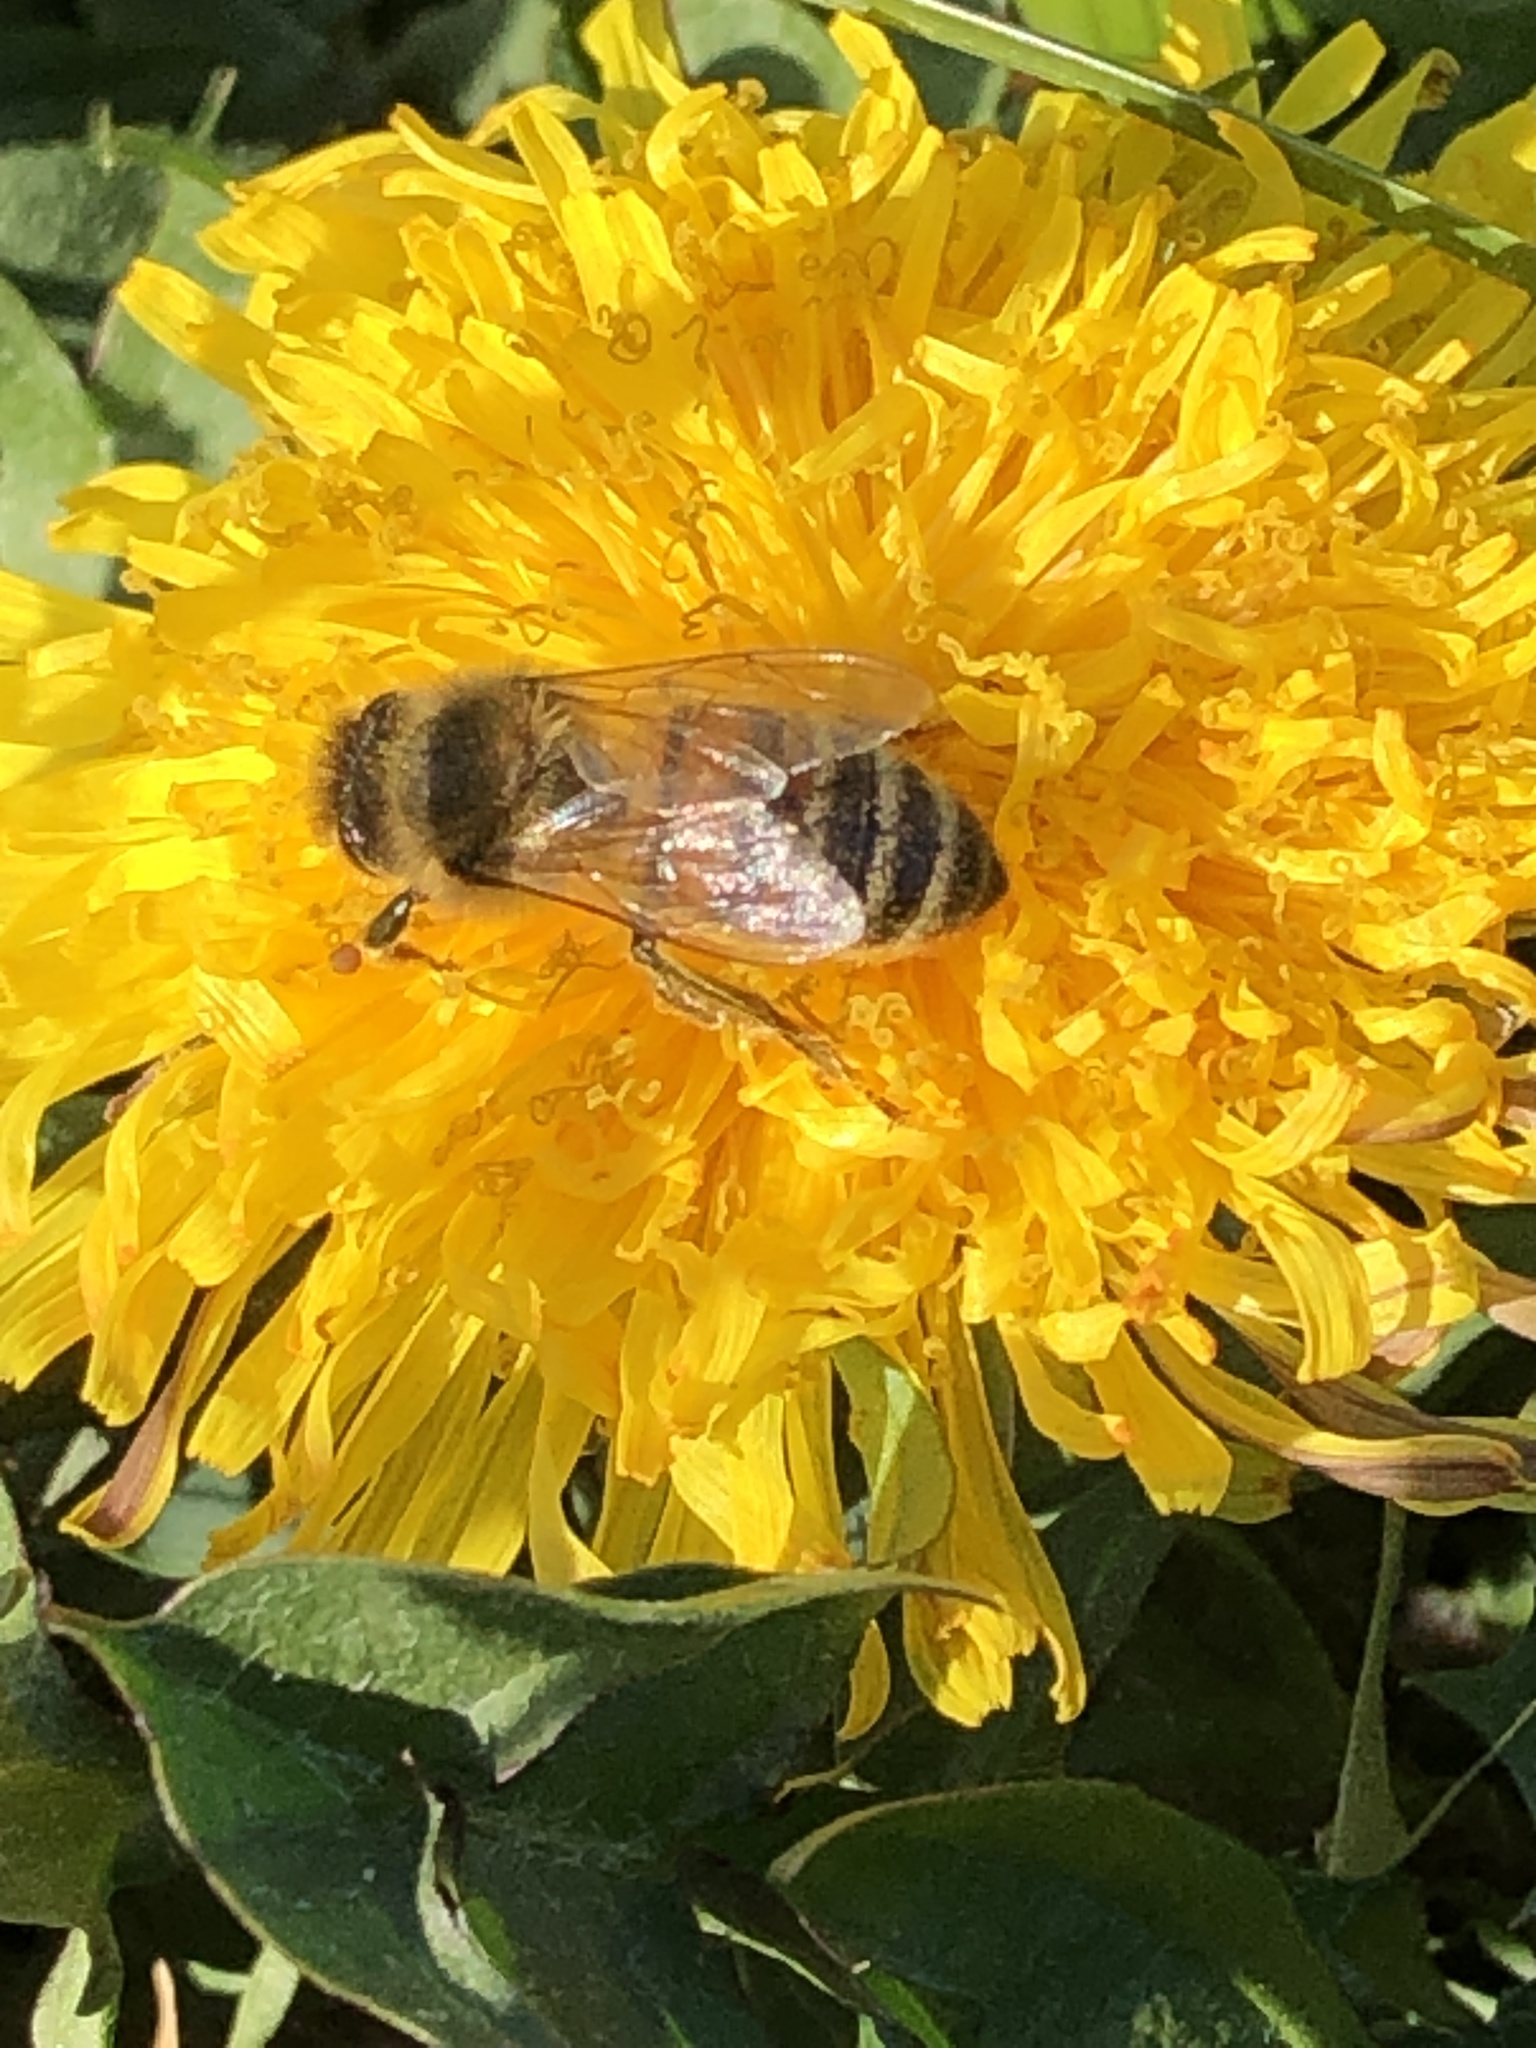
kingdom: Animalia
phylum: Arthropoda
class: Insecta
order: Hymenoptera
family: Apidae
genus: Apis
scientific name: Apis mellifera
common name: Honey bee
